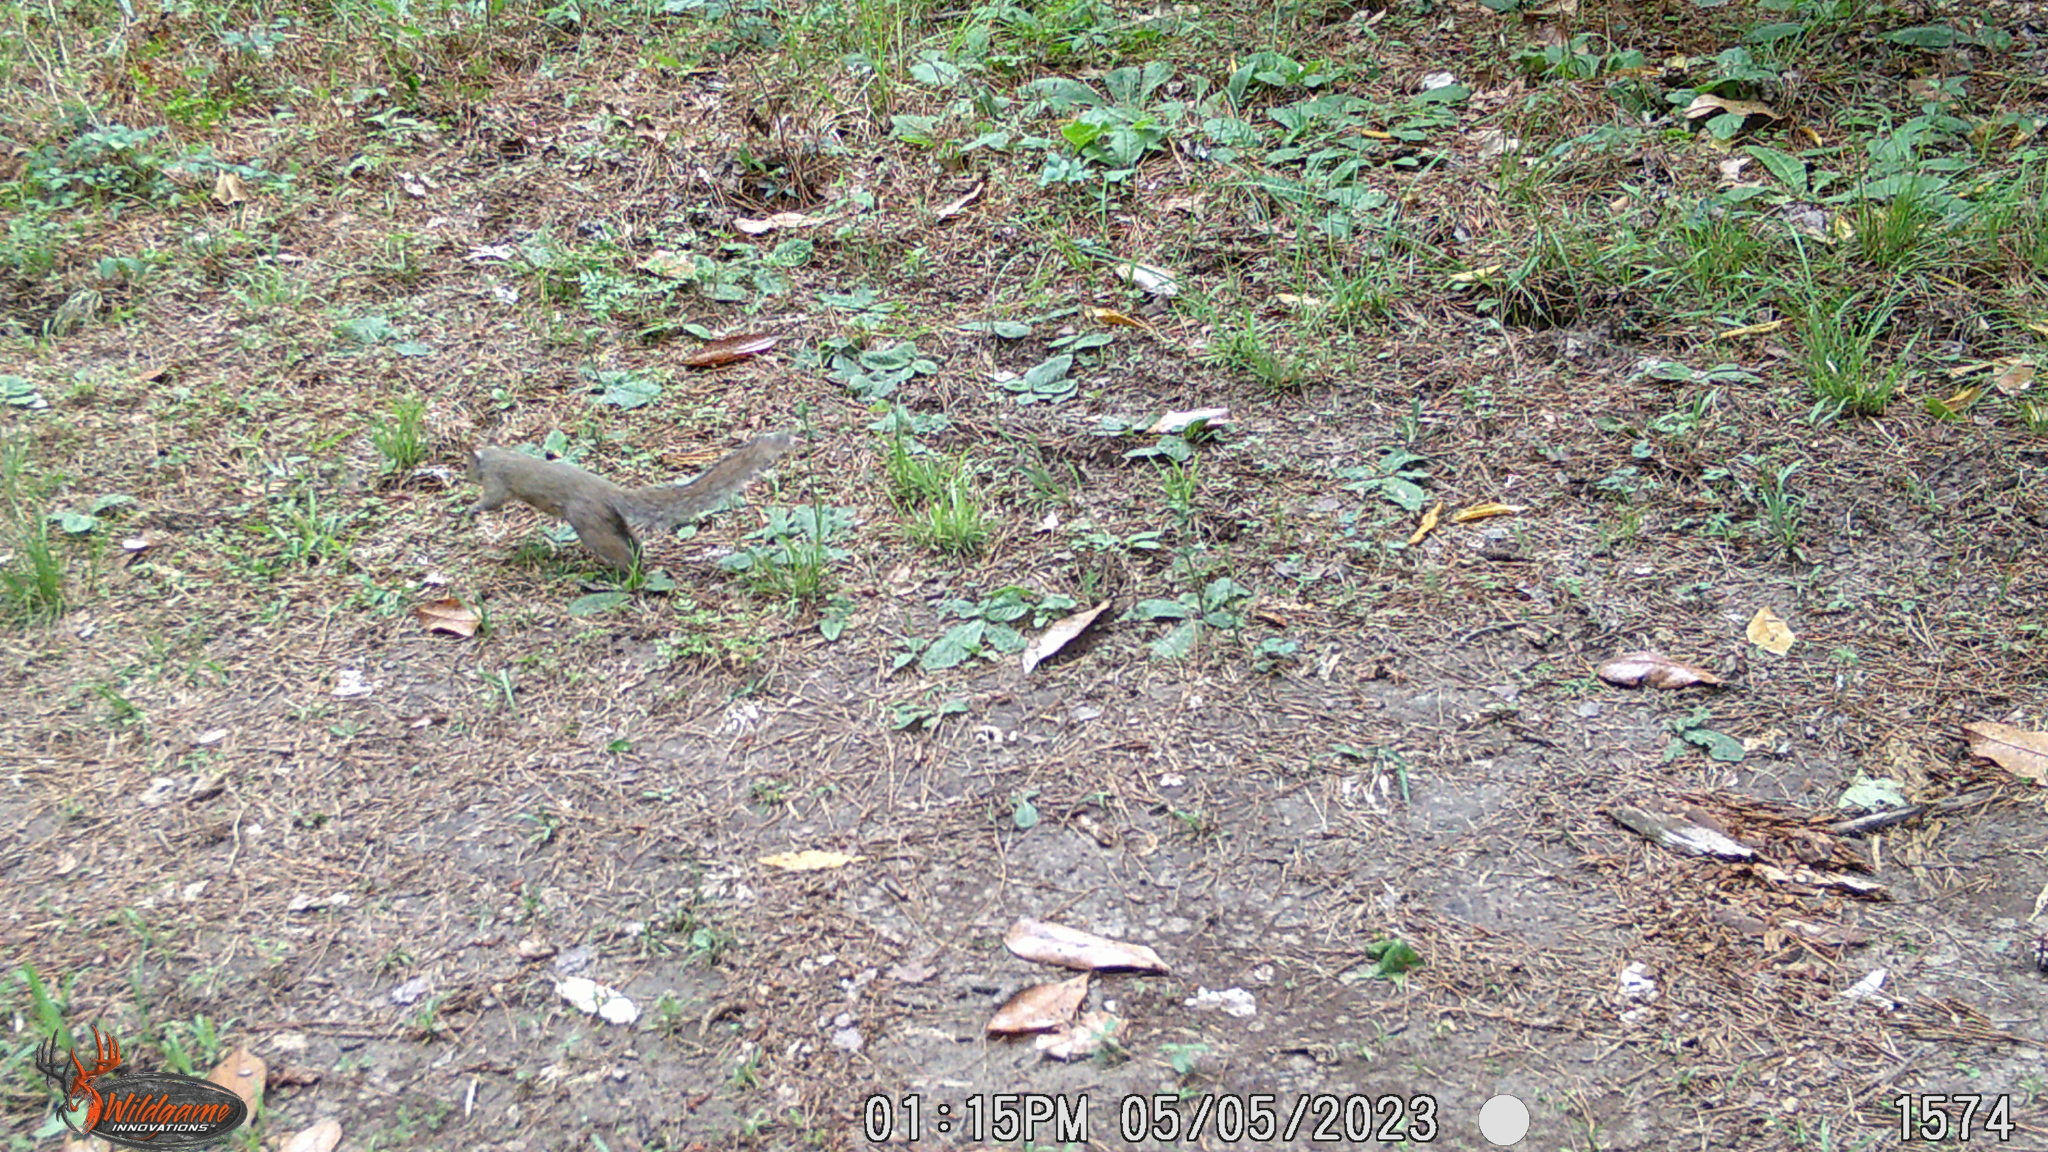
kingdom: Animalia
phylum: Chordata
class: Mammalia
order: Rodentia
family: Sciuridae
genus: Sciurus
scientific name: Sciurus carolinensis
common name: Eastern gray squirrel
